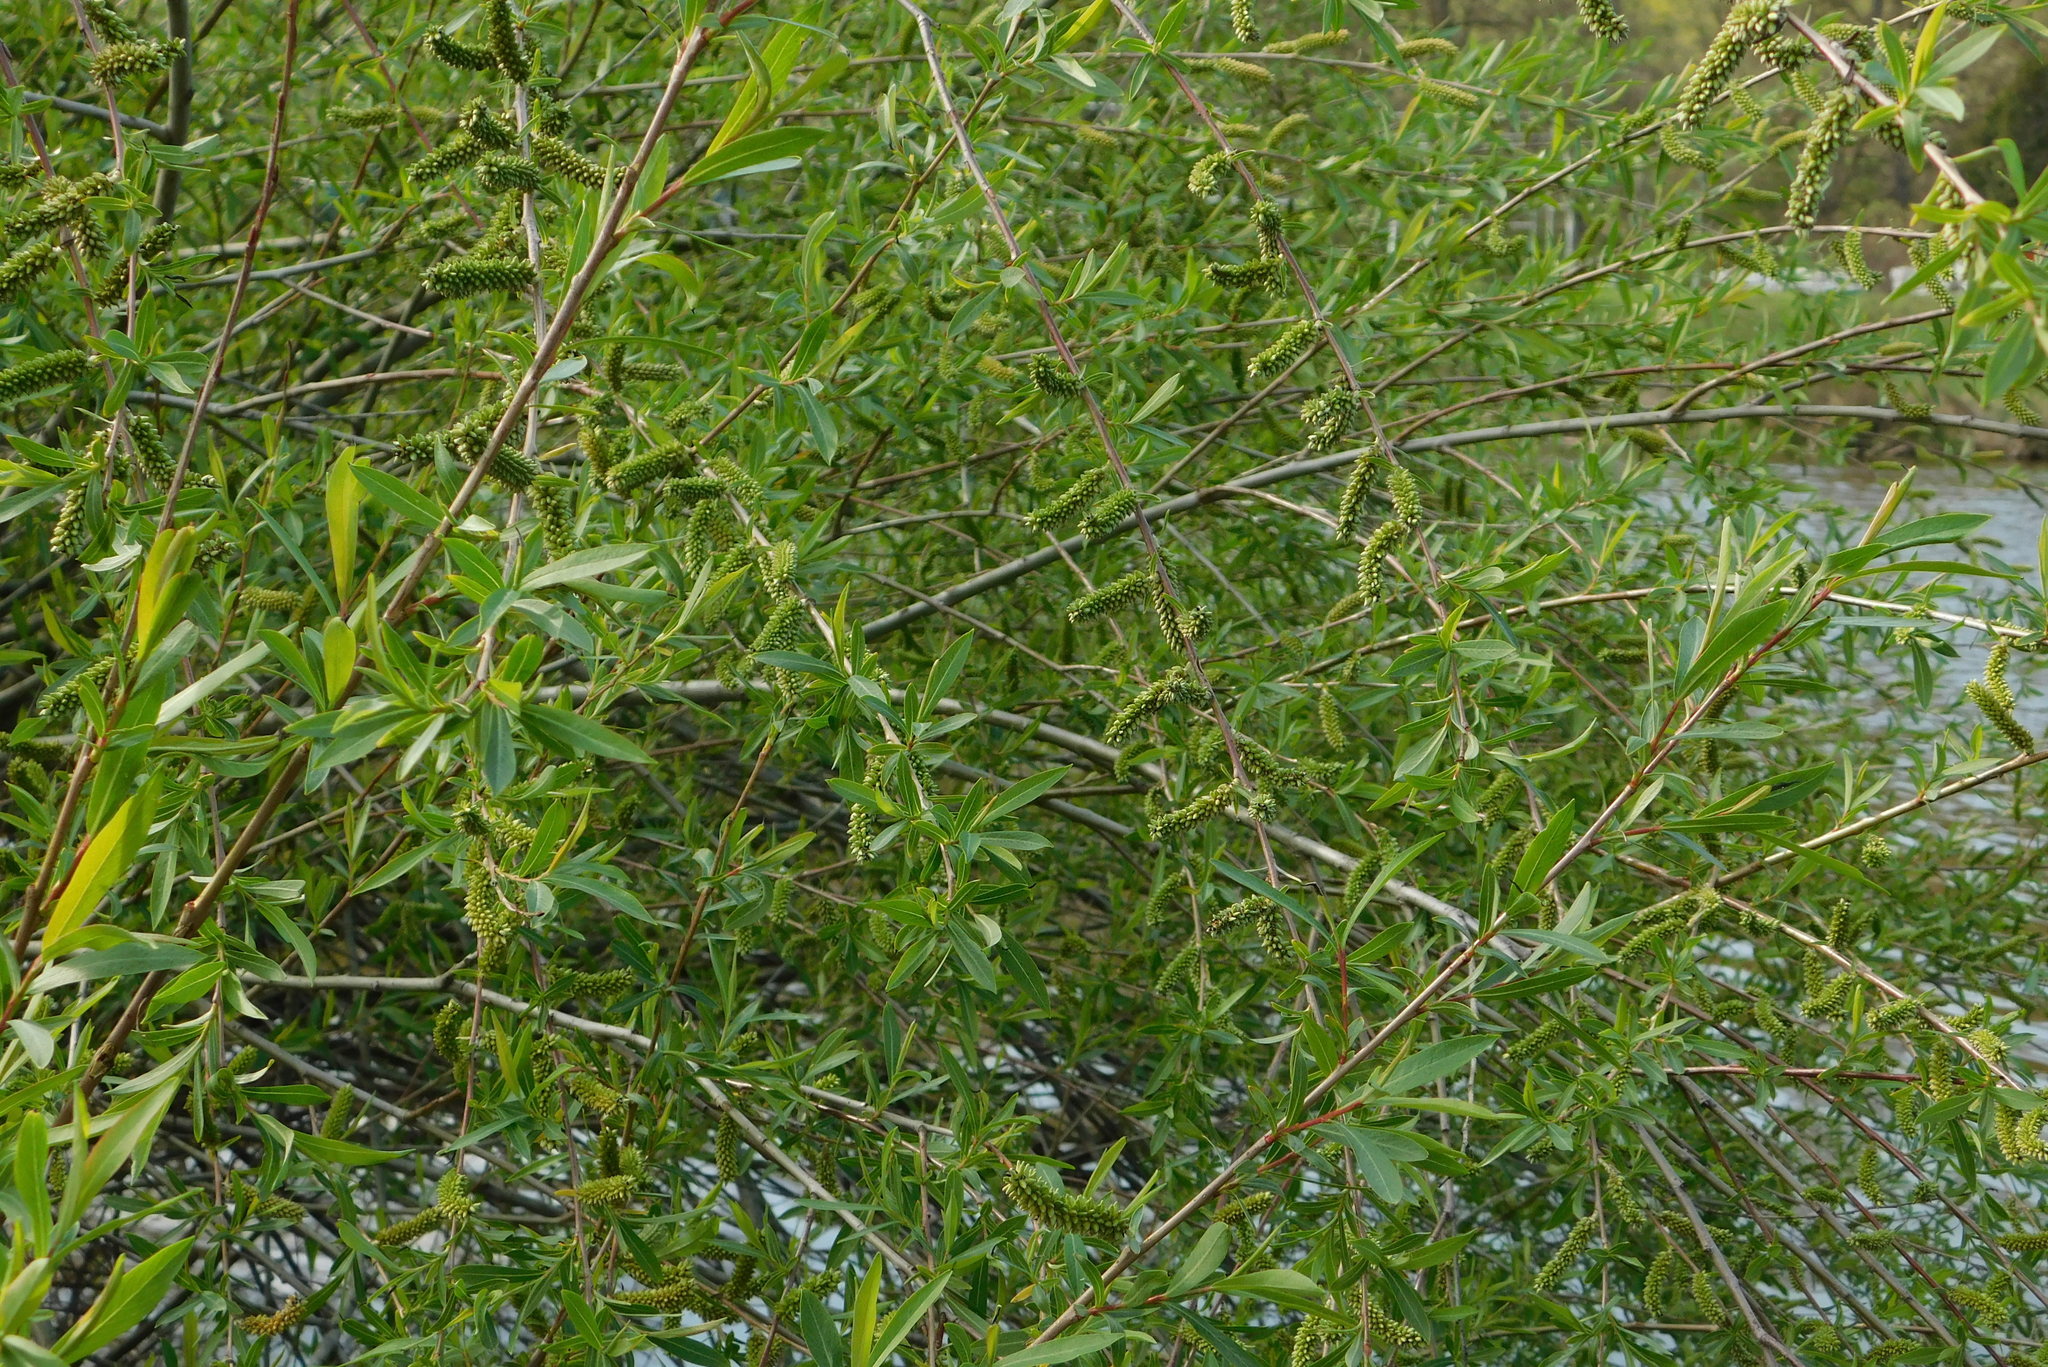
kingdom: Plantae
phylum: Tracheophyta
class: Magnoliopsida
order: Malpighiales
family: Salicaceae
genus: Salix
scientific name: Salix purpurea
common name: Purple willow
